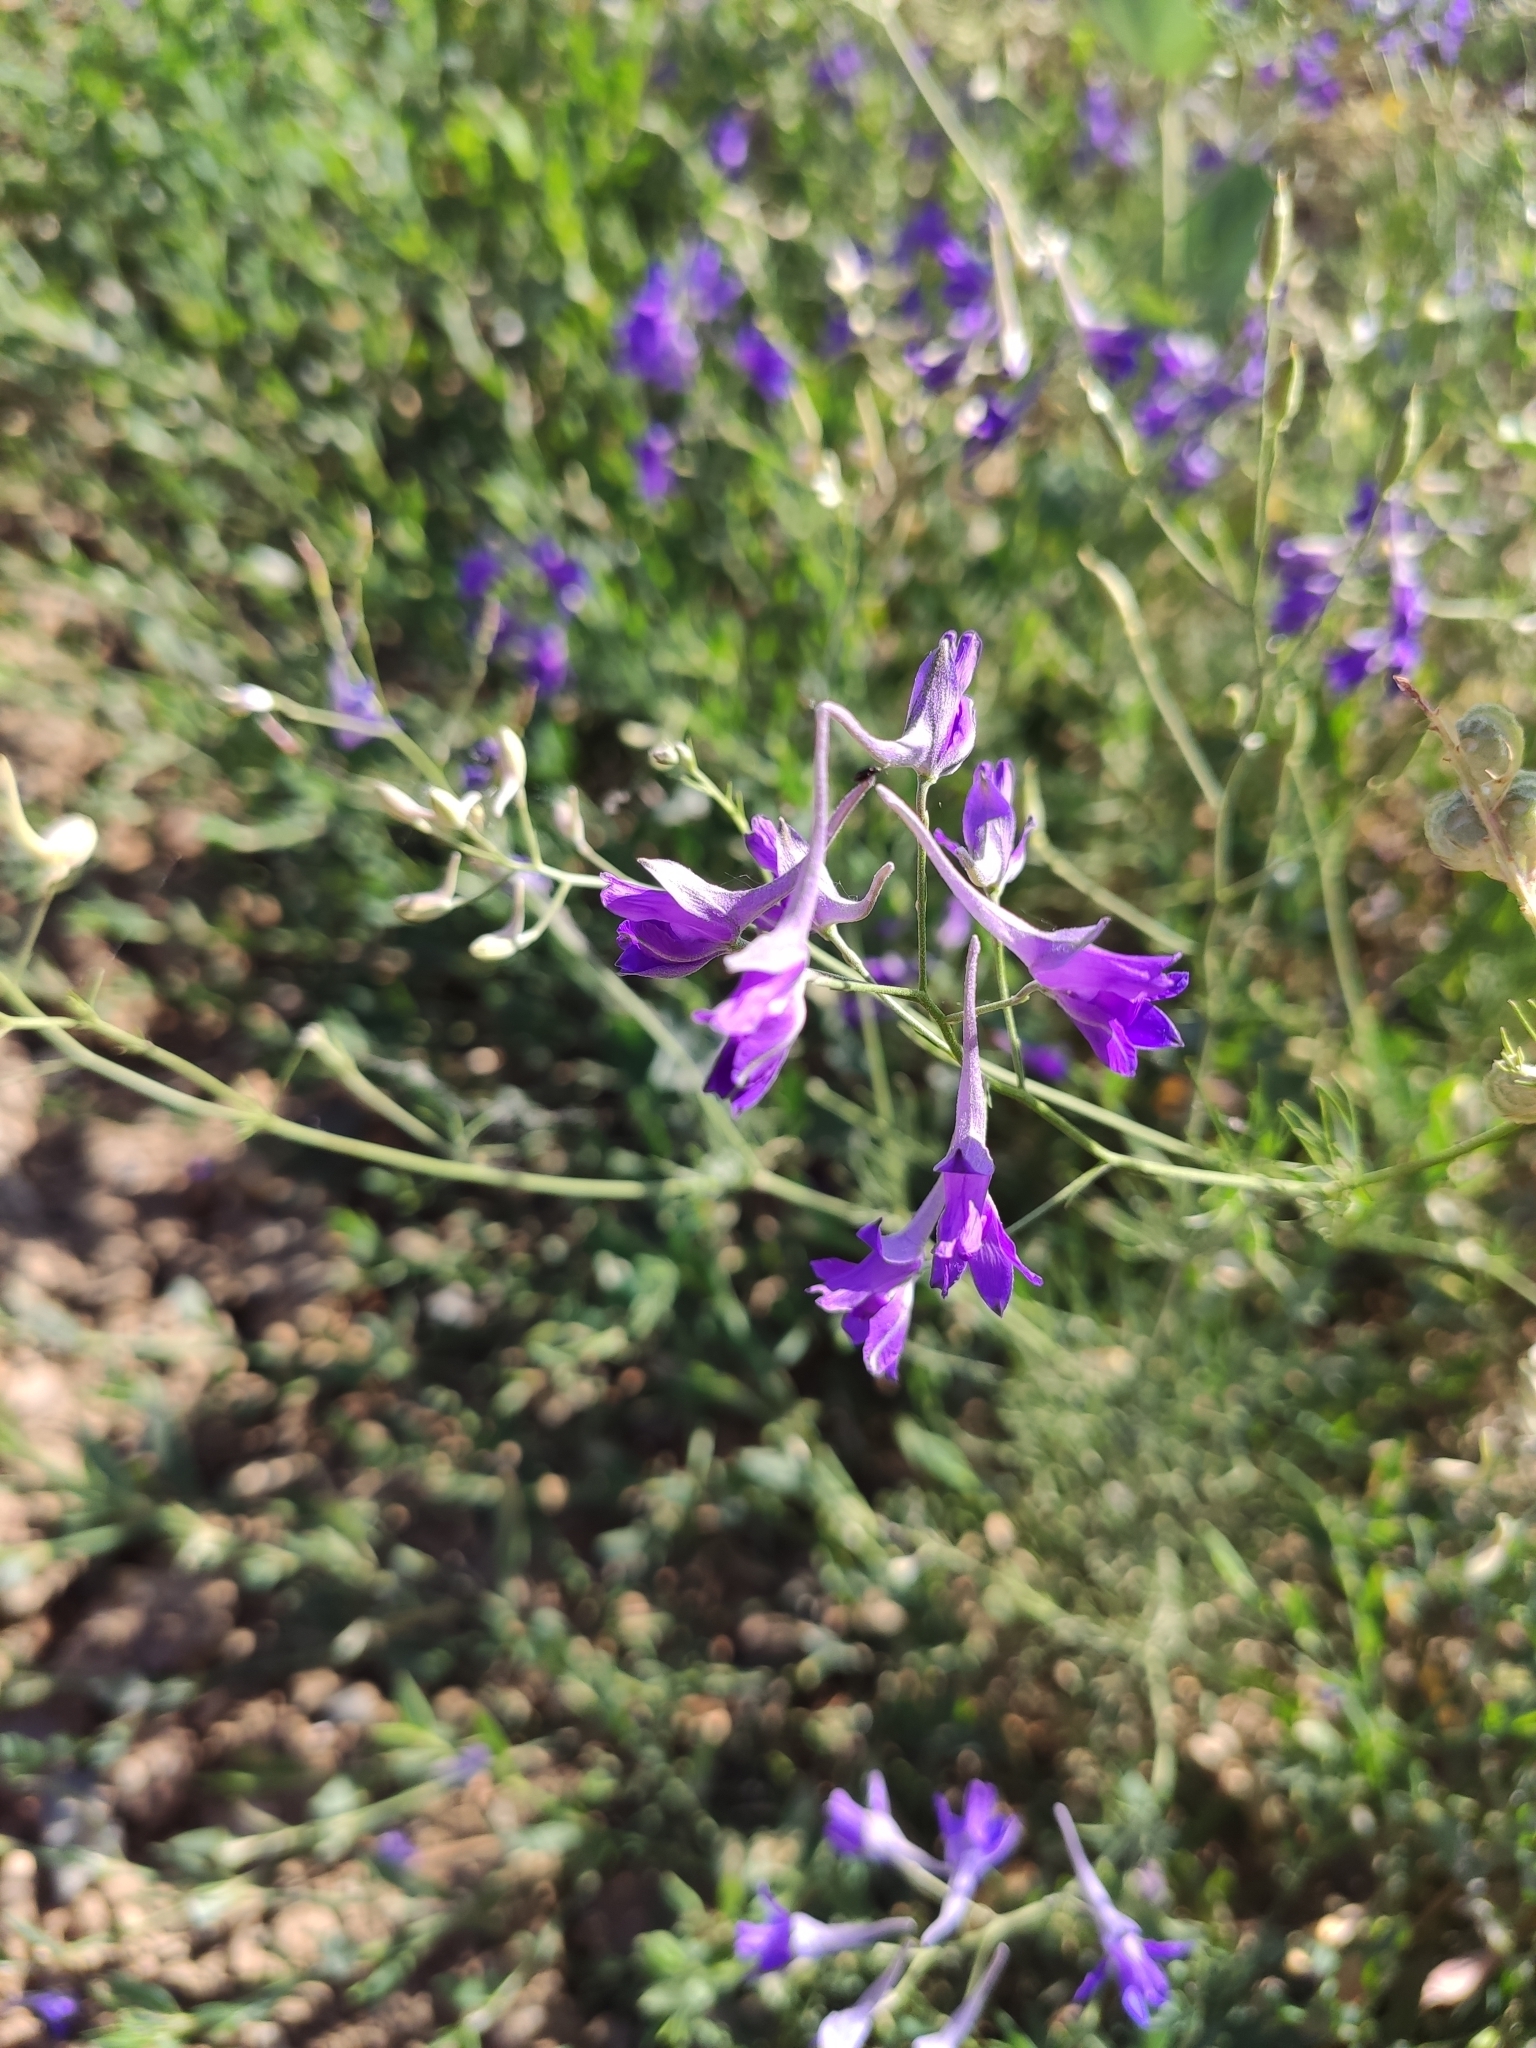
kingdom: Plantae
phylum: Tracheophyta
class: Magnoliopsida
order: Ranunculales
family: Ranunculaceae
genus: Delphinium
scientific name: Delphinium consolida
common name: Branching larkspur
